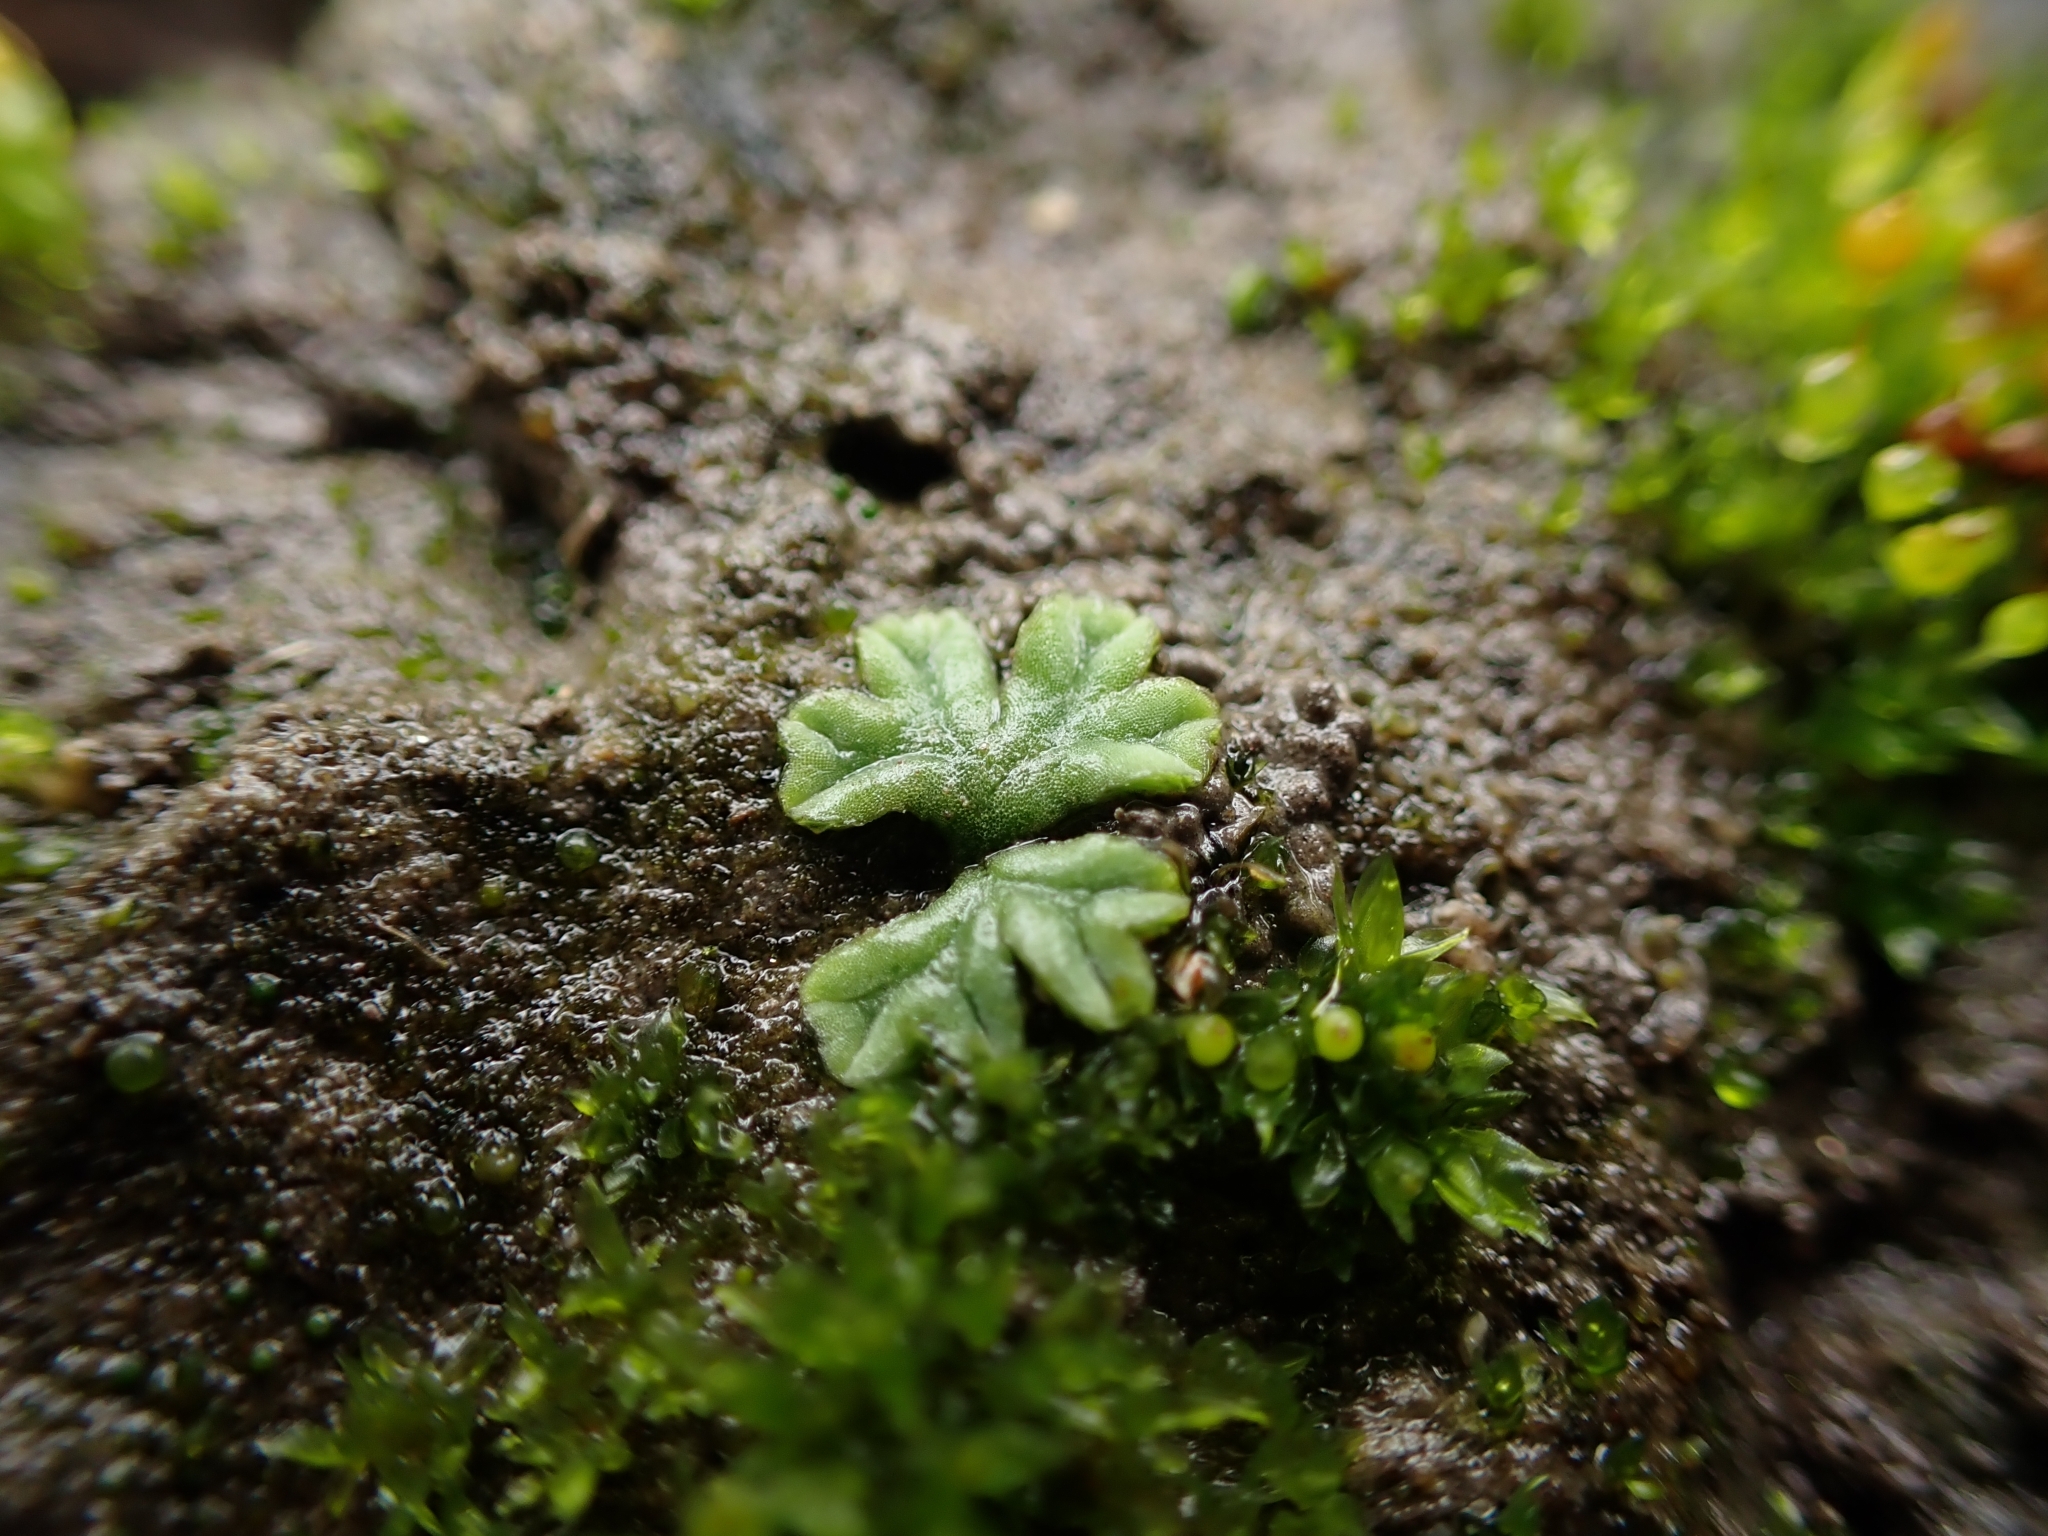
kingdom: Plantae
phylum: Marchantiophyta
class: Marchantiopsida
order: Marchantiales
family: Ricciaceae
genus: Riccia
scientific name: Riccia sorocarpa
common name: Common crystalwort
